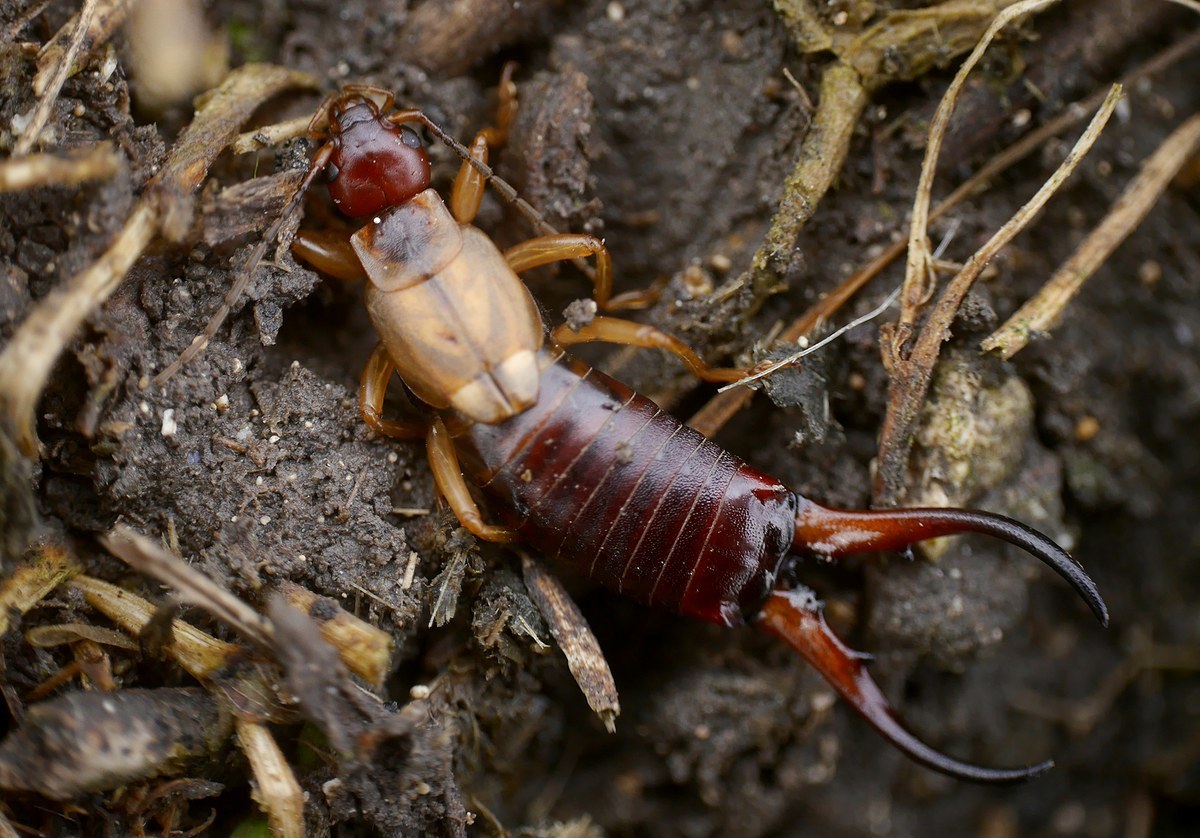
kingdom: Animalia
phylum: Arthropoda
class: Insecta
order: Dermaptera
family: Forficulidae
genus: Forficula
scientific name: Forficula
